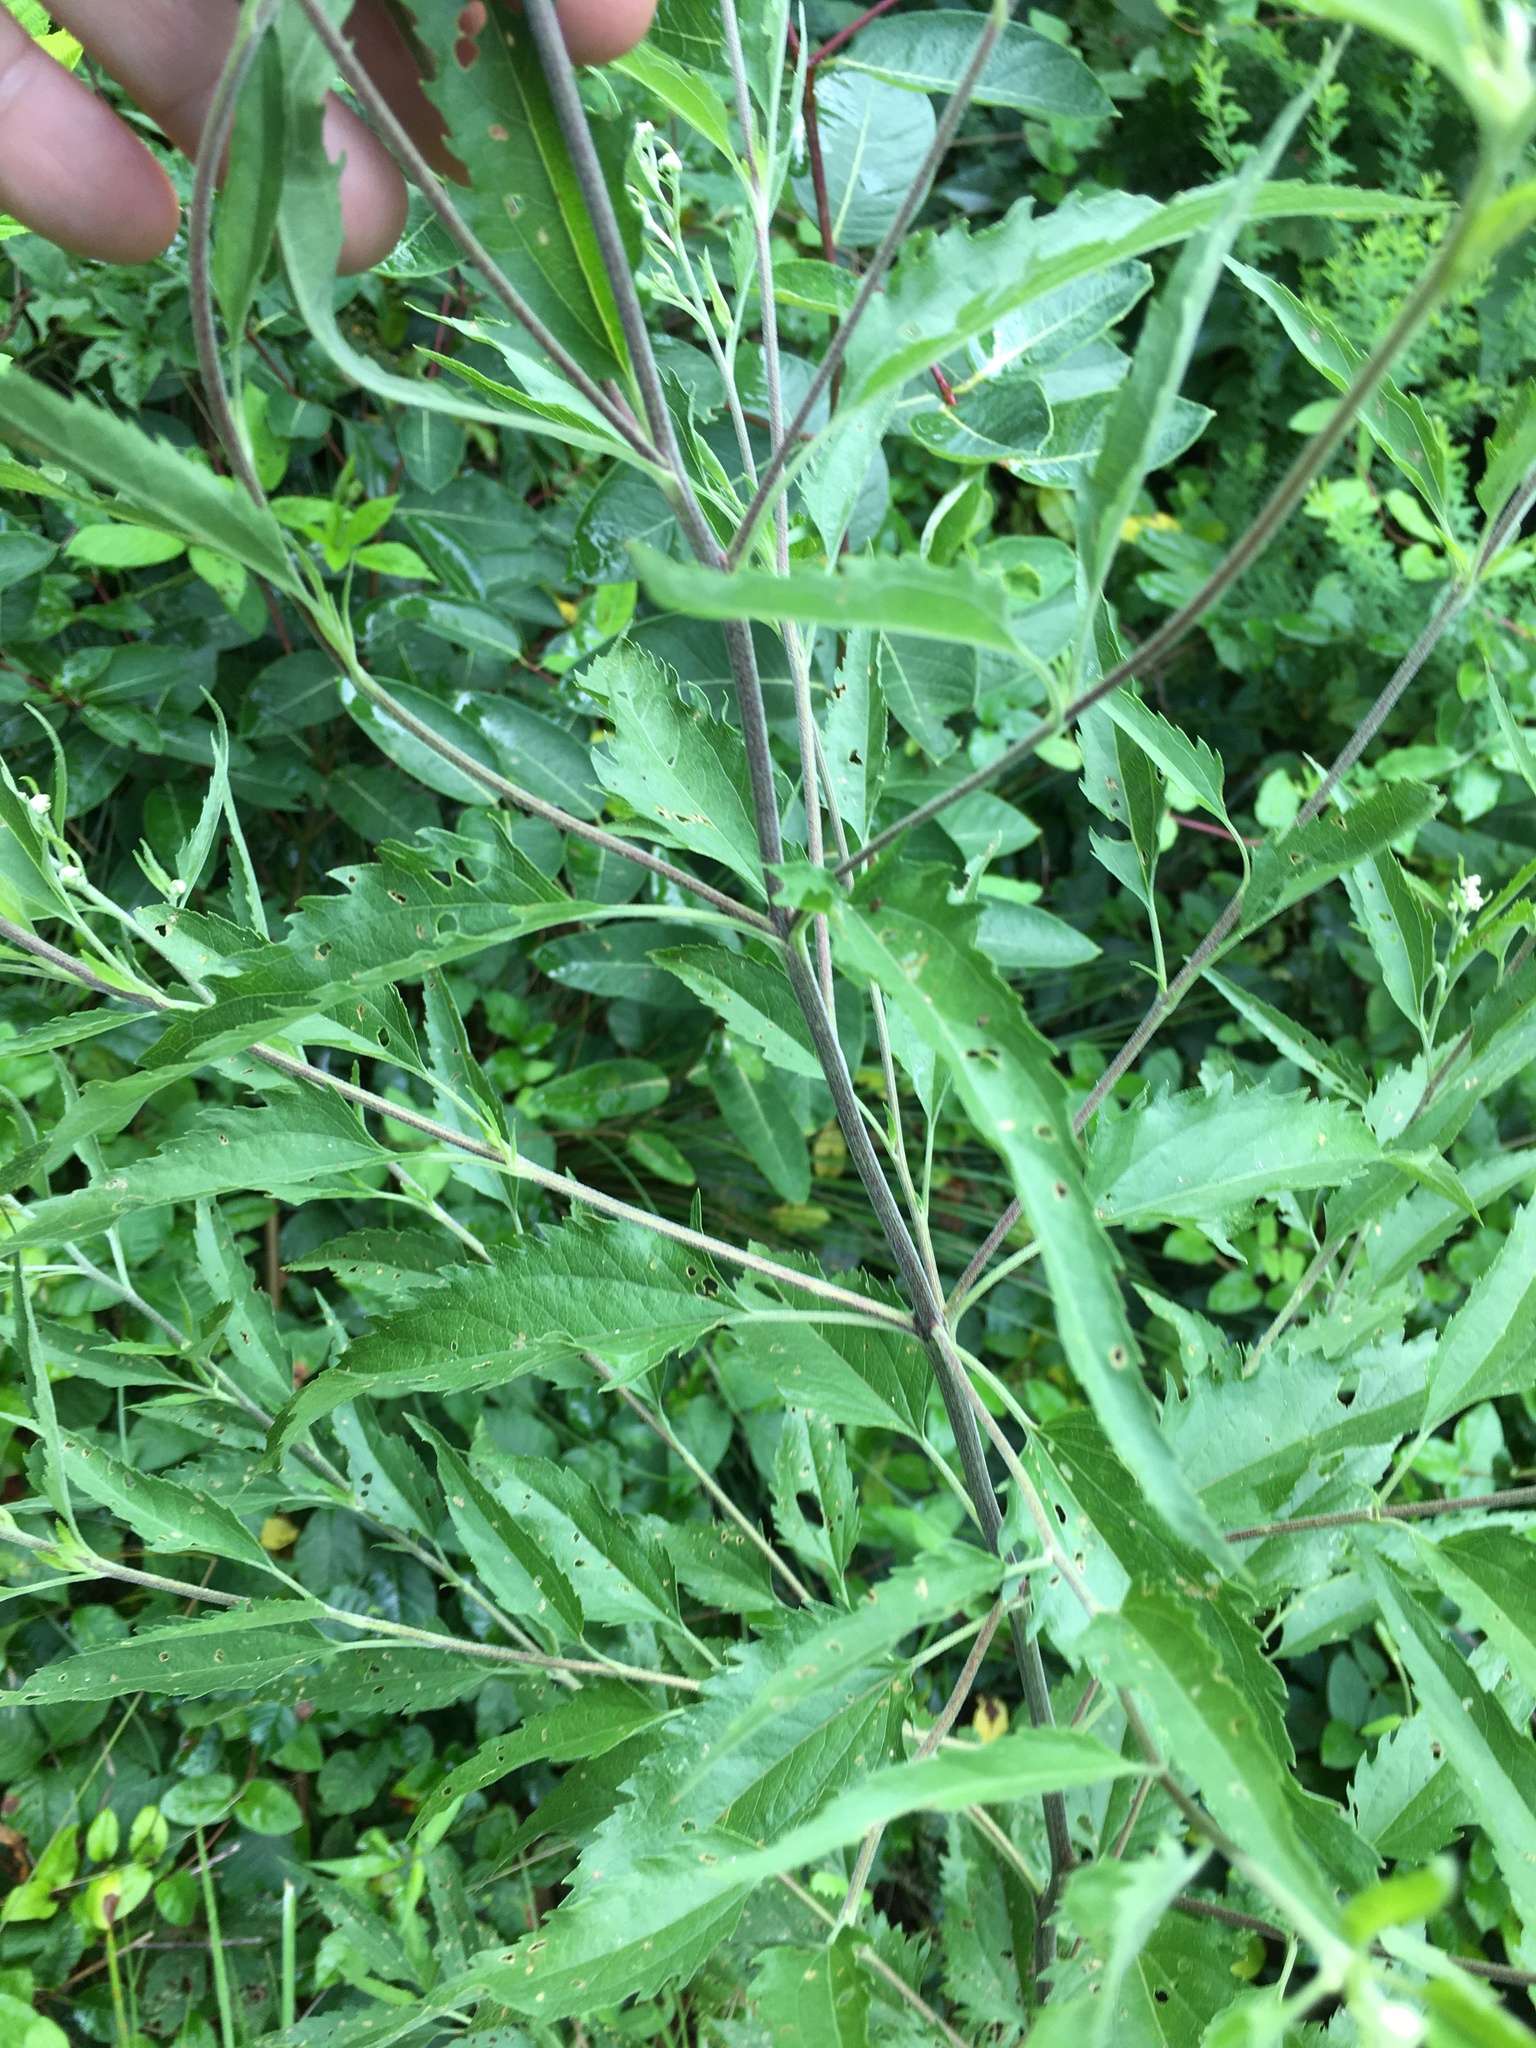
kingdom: Plantae
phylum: Tracheophyta
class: Magnoliopsida
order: Asterales
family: Asteraceae
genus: Eupatorium
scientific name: Eupatorium serotinum
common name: Late boneset
